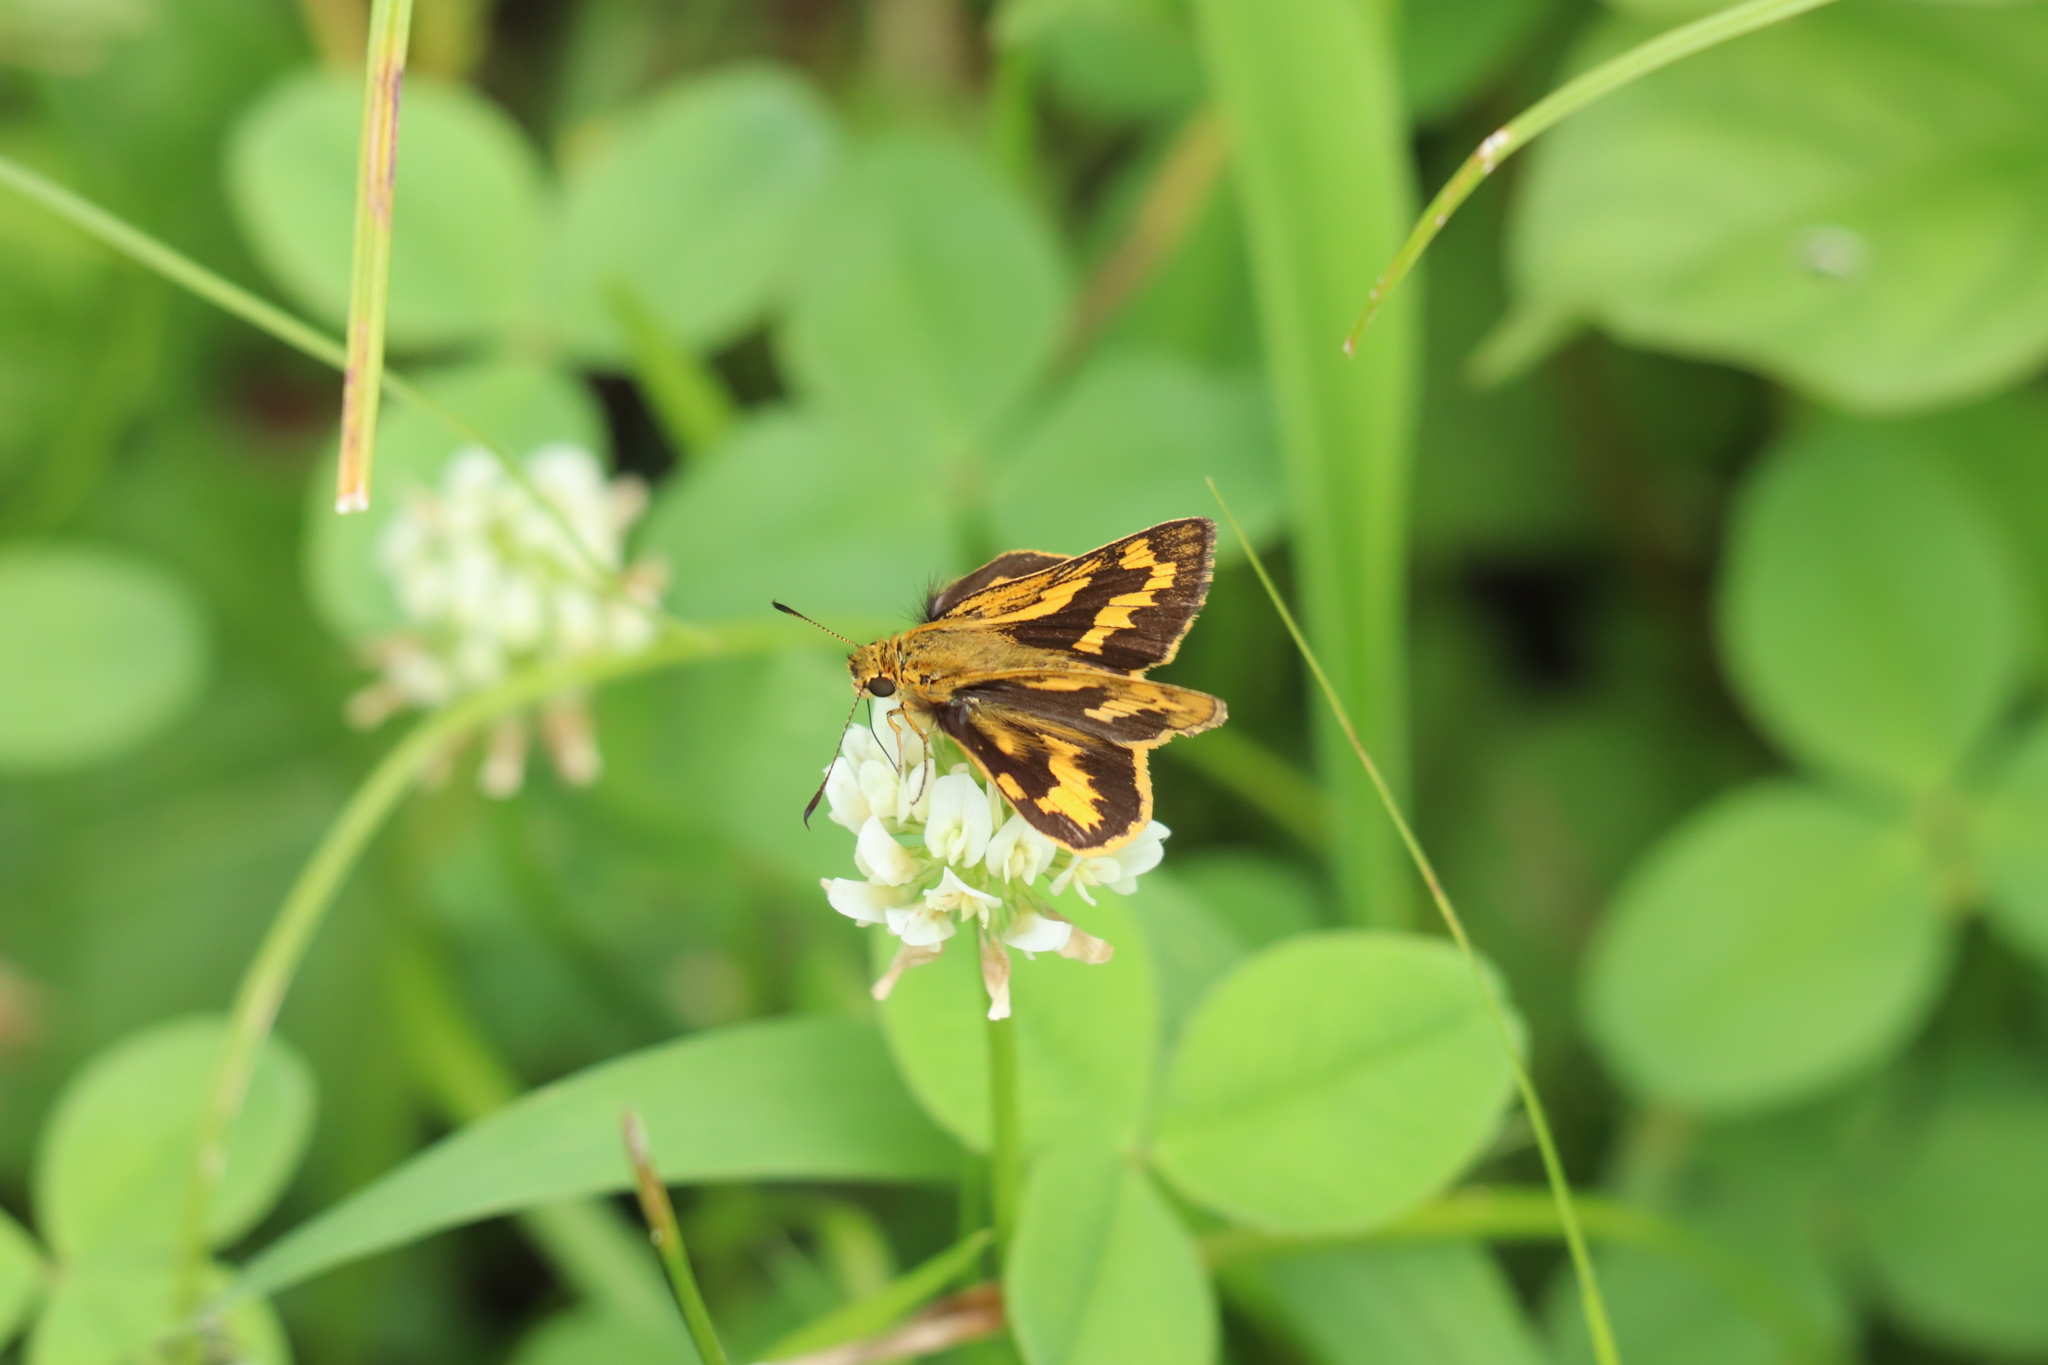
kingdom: Animalia
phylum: Arthropoda
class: Insecta
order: Lepidoptera
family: Hesperiidae
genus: Potanthus
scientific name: Potanthus flava
